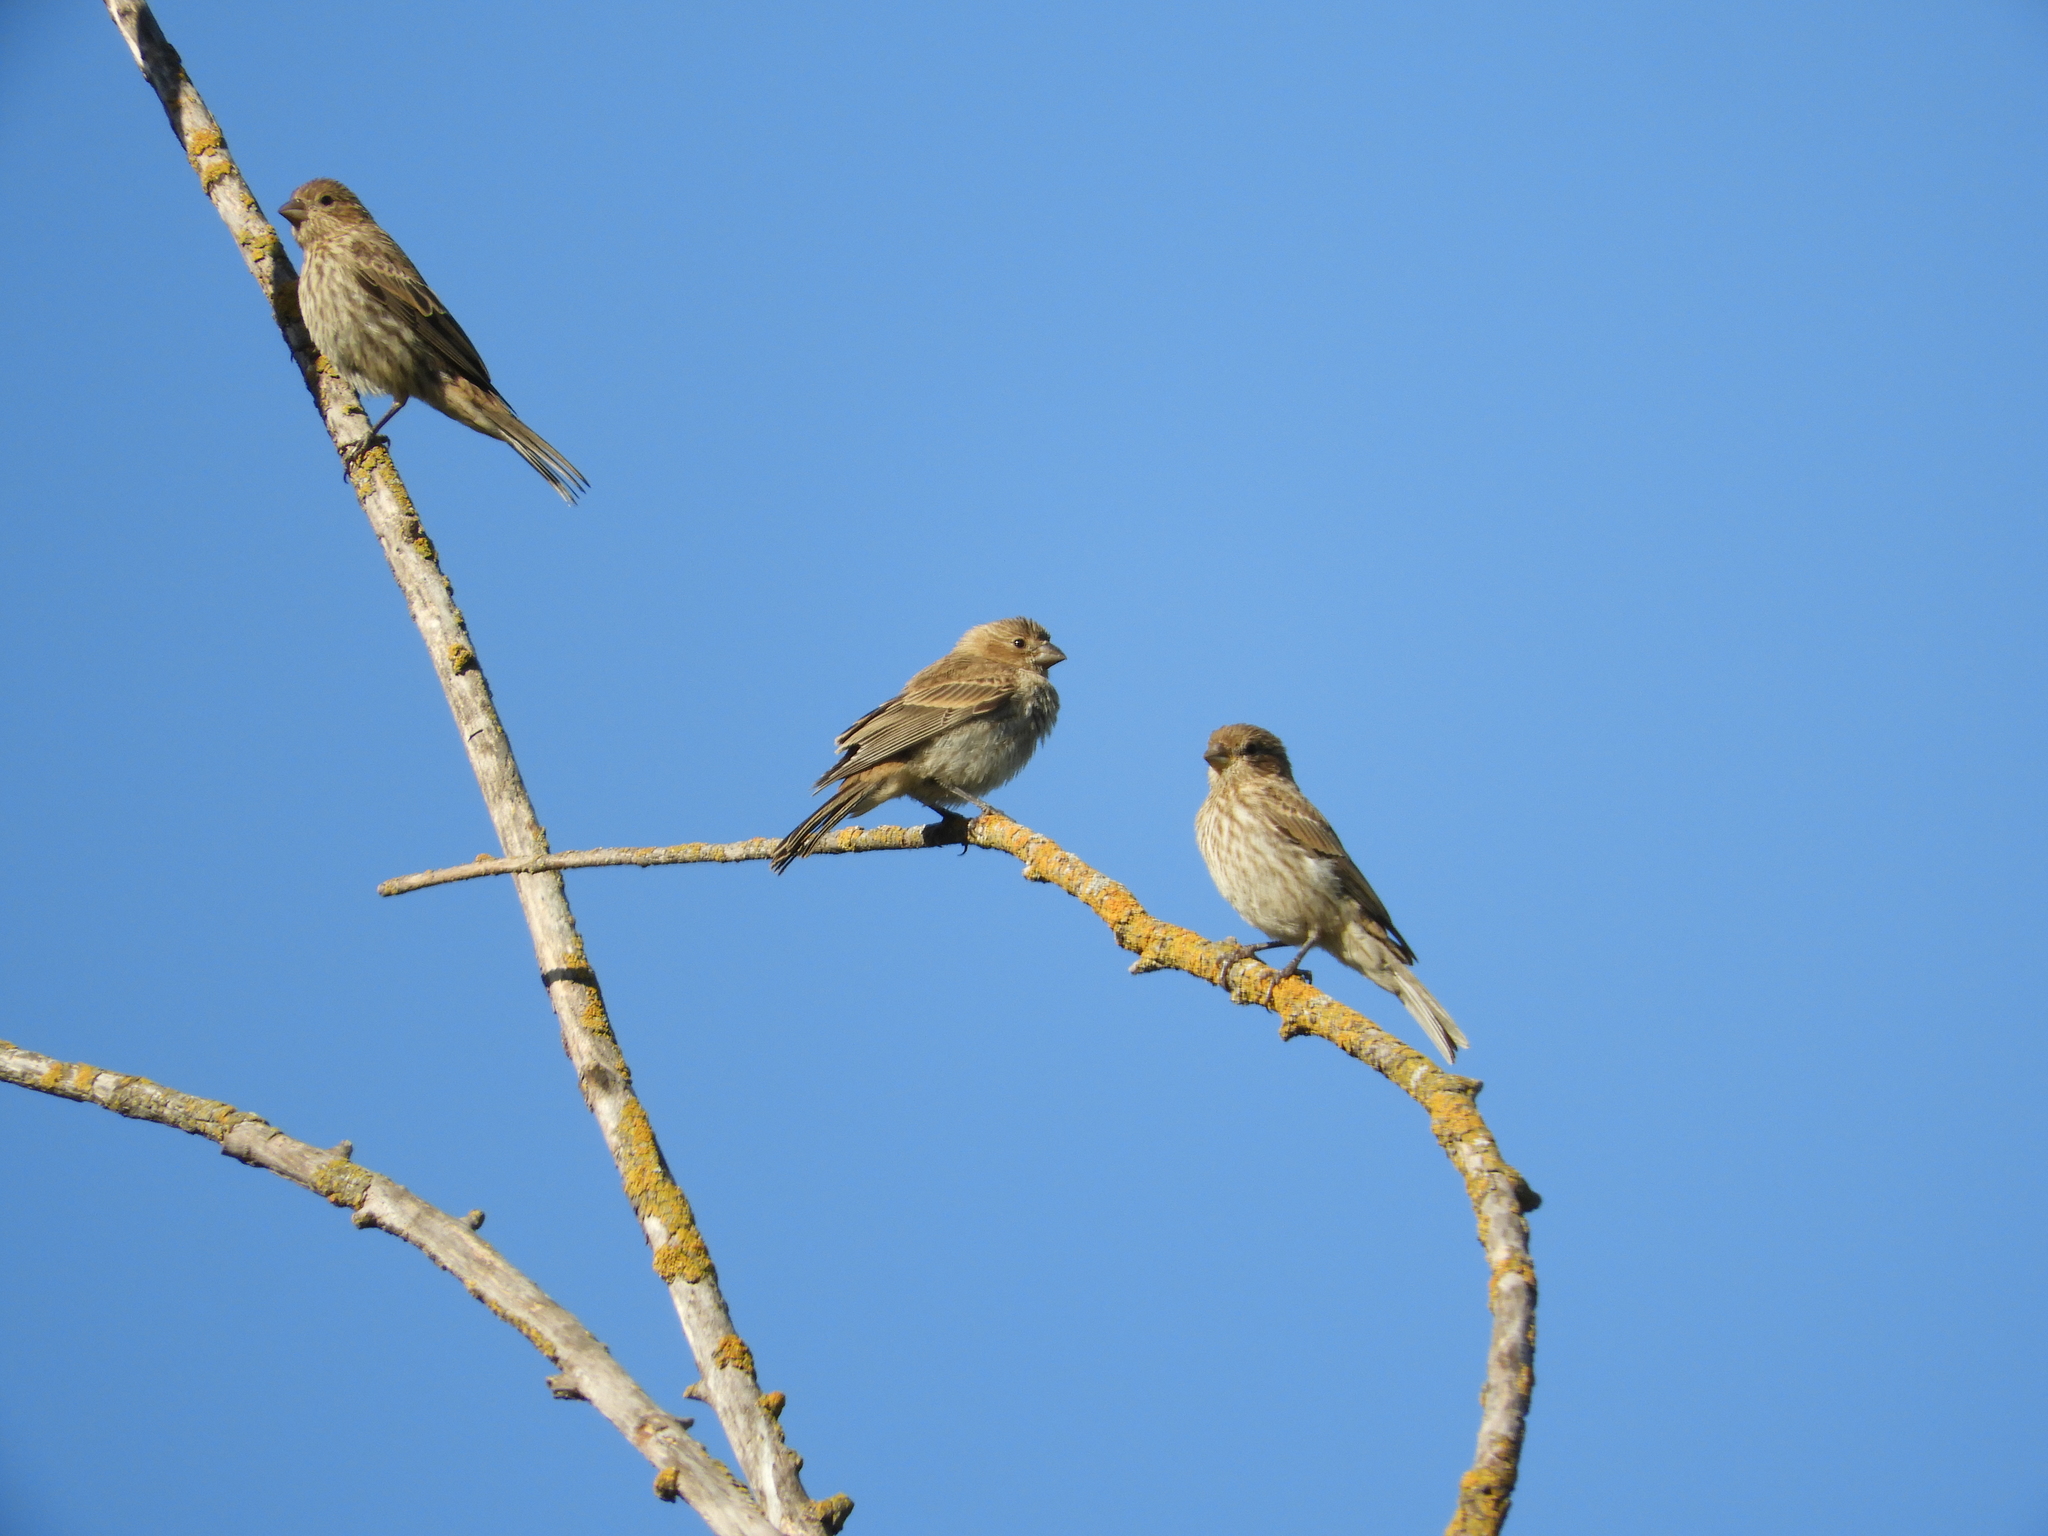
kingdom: Animalia
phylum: Chordata
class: Aves
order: Passeriformes
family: Fringillidae
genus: Haemorhous
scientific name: Haemorhous mexicanus
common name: House finch
